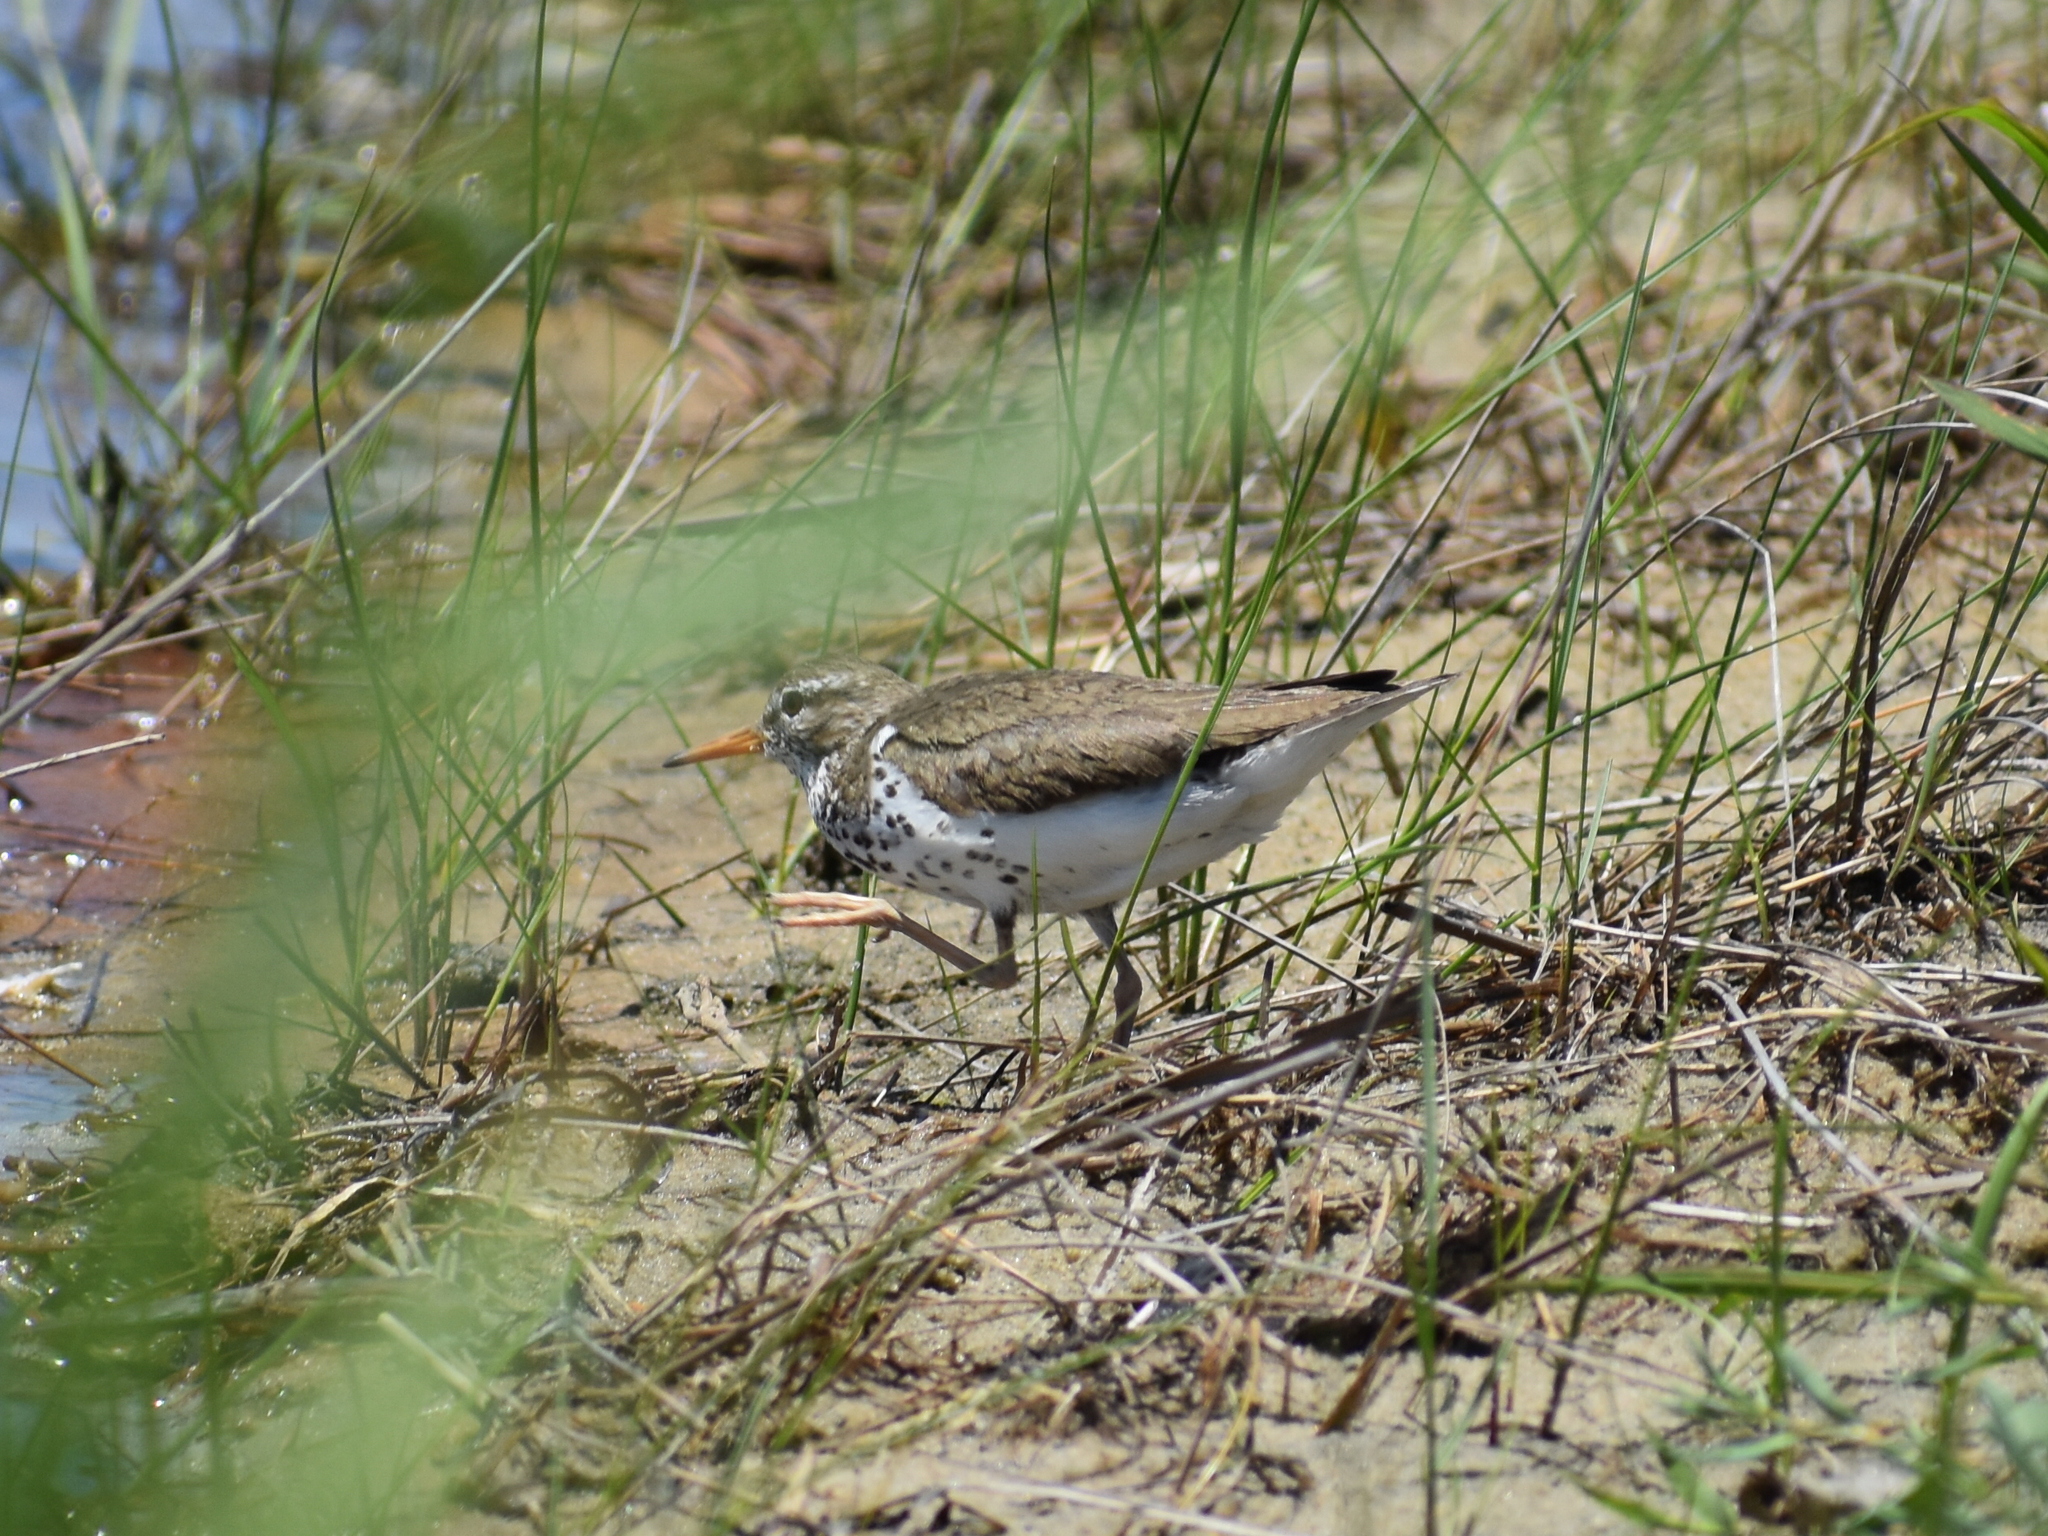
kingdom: Animalia
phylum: Chordata
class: Aves
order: Charadriiformes
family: Scolopacidae
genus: Actitis
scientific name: Actitis macularius
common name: Spotted sandpiper
